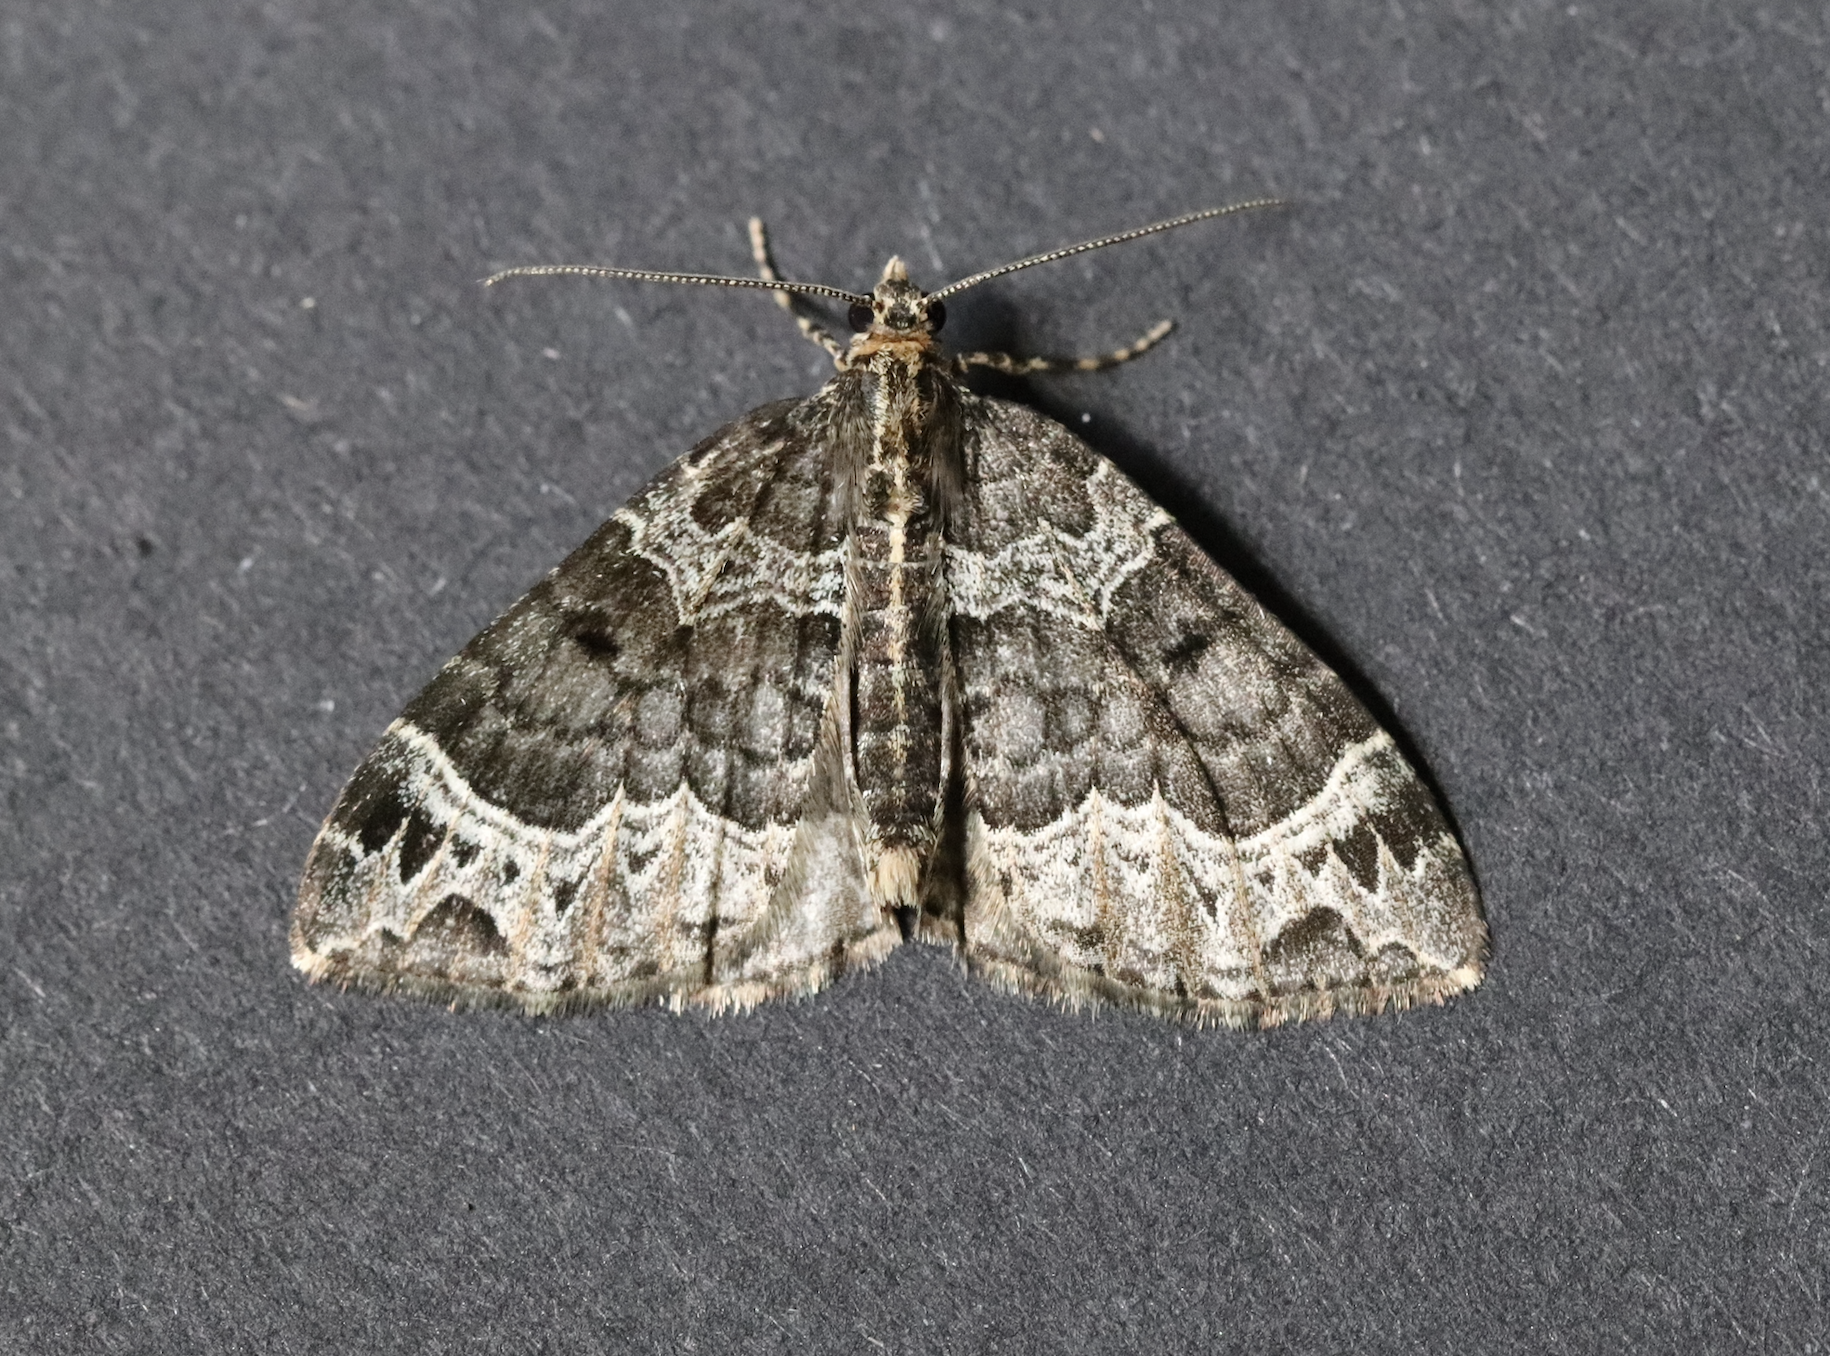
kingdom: Animalia
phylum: Arthropoda
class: Insecta
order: Lepidoptera
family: Geometridae
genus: Ecliptopera
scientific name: Ecliptopera silaceata
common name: Small phoenix
